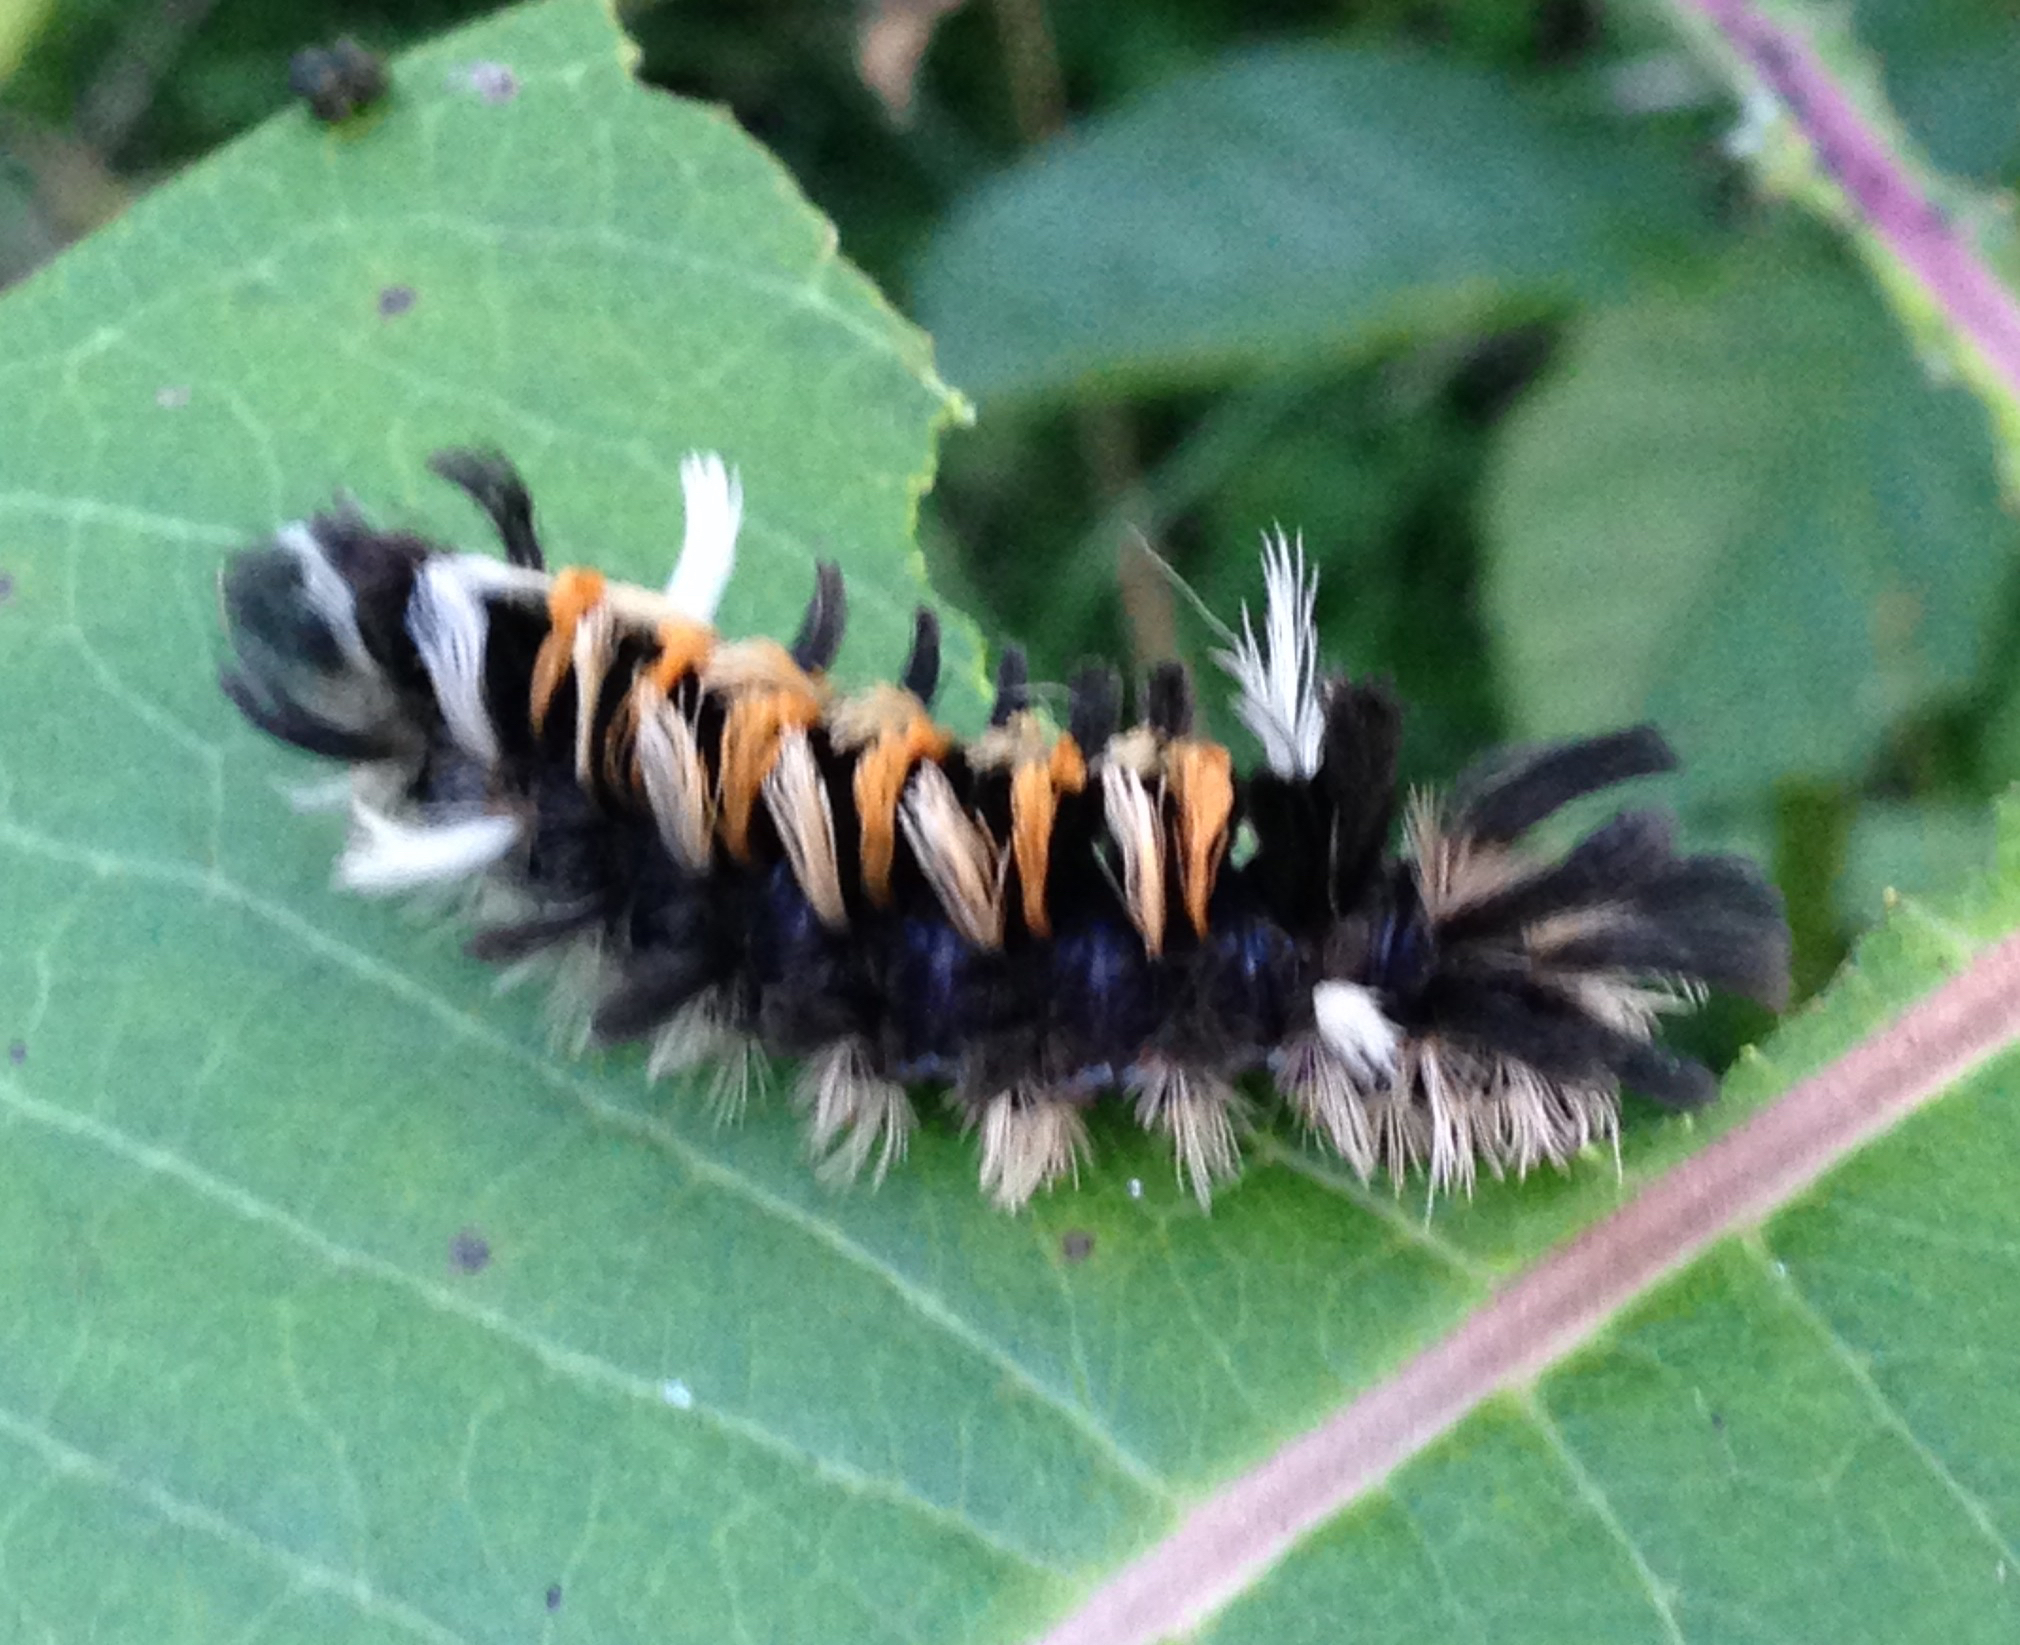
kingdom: Animalia
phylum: Arthropoda
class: Insecta
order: Lepidoptera
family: Erebidae
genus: Euchaetes
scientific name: Euchaetes egle
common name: Milkweed tussock moth
